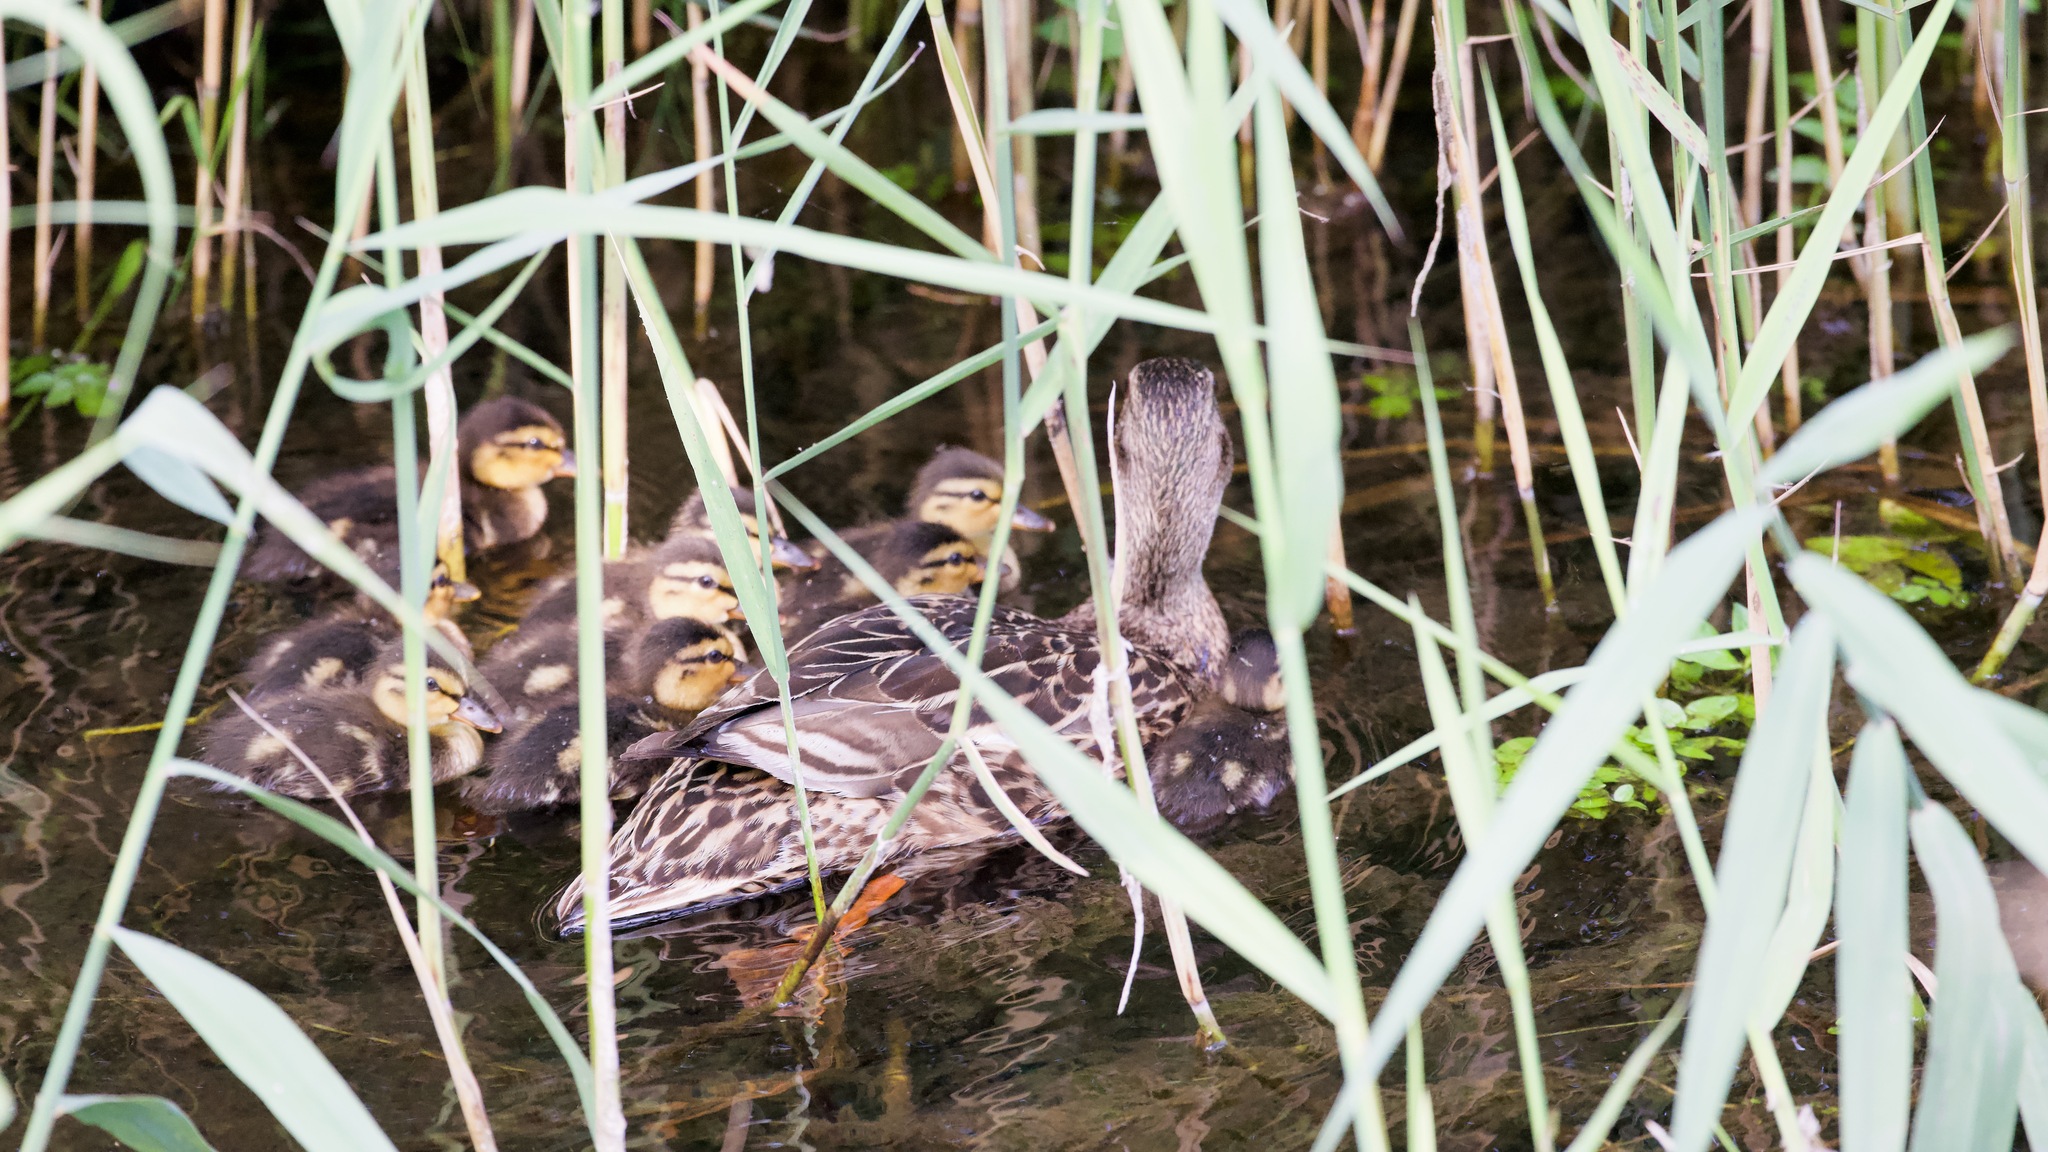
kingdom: Animalia
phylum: Chordata
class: Aves
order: Anseriformes
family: Anatidae
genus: Anas
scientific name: Anas platyrhynchos
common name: Mallard
